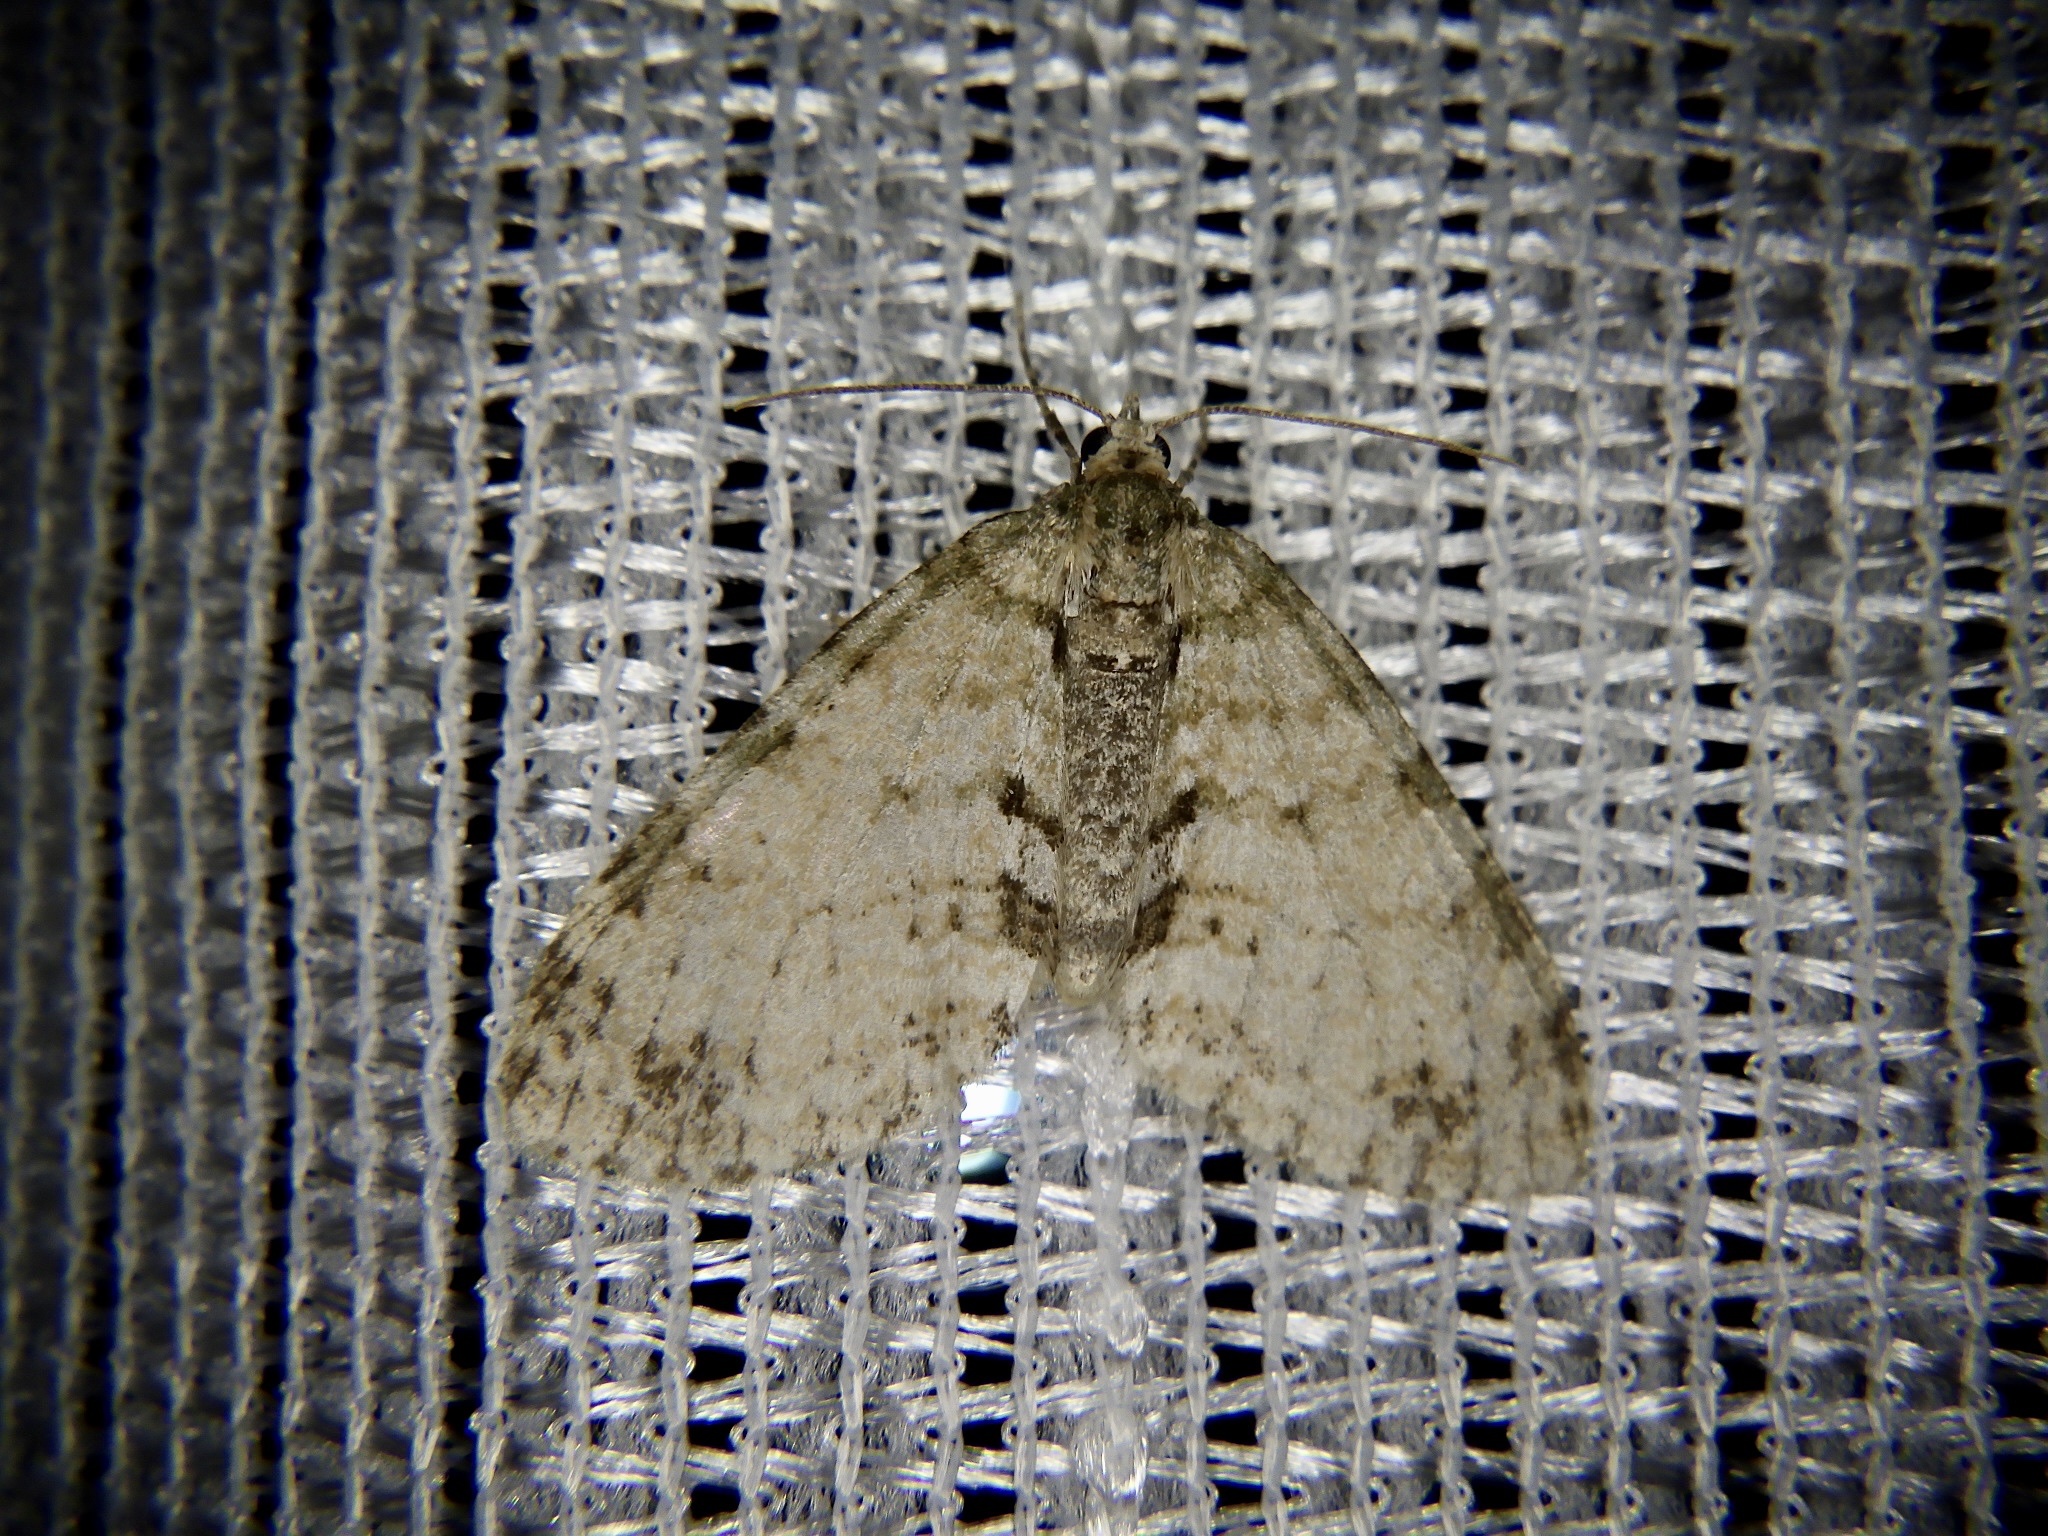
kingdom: Animalia
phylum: Arthropoda
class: Insecta
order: Lepidoptera
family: Geometridae
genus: Trichopteryx
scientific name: Trichopteryx grisearia
